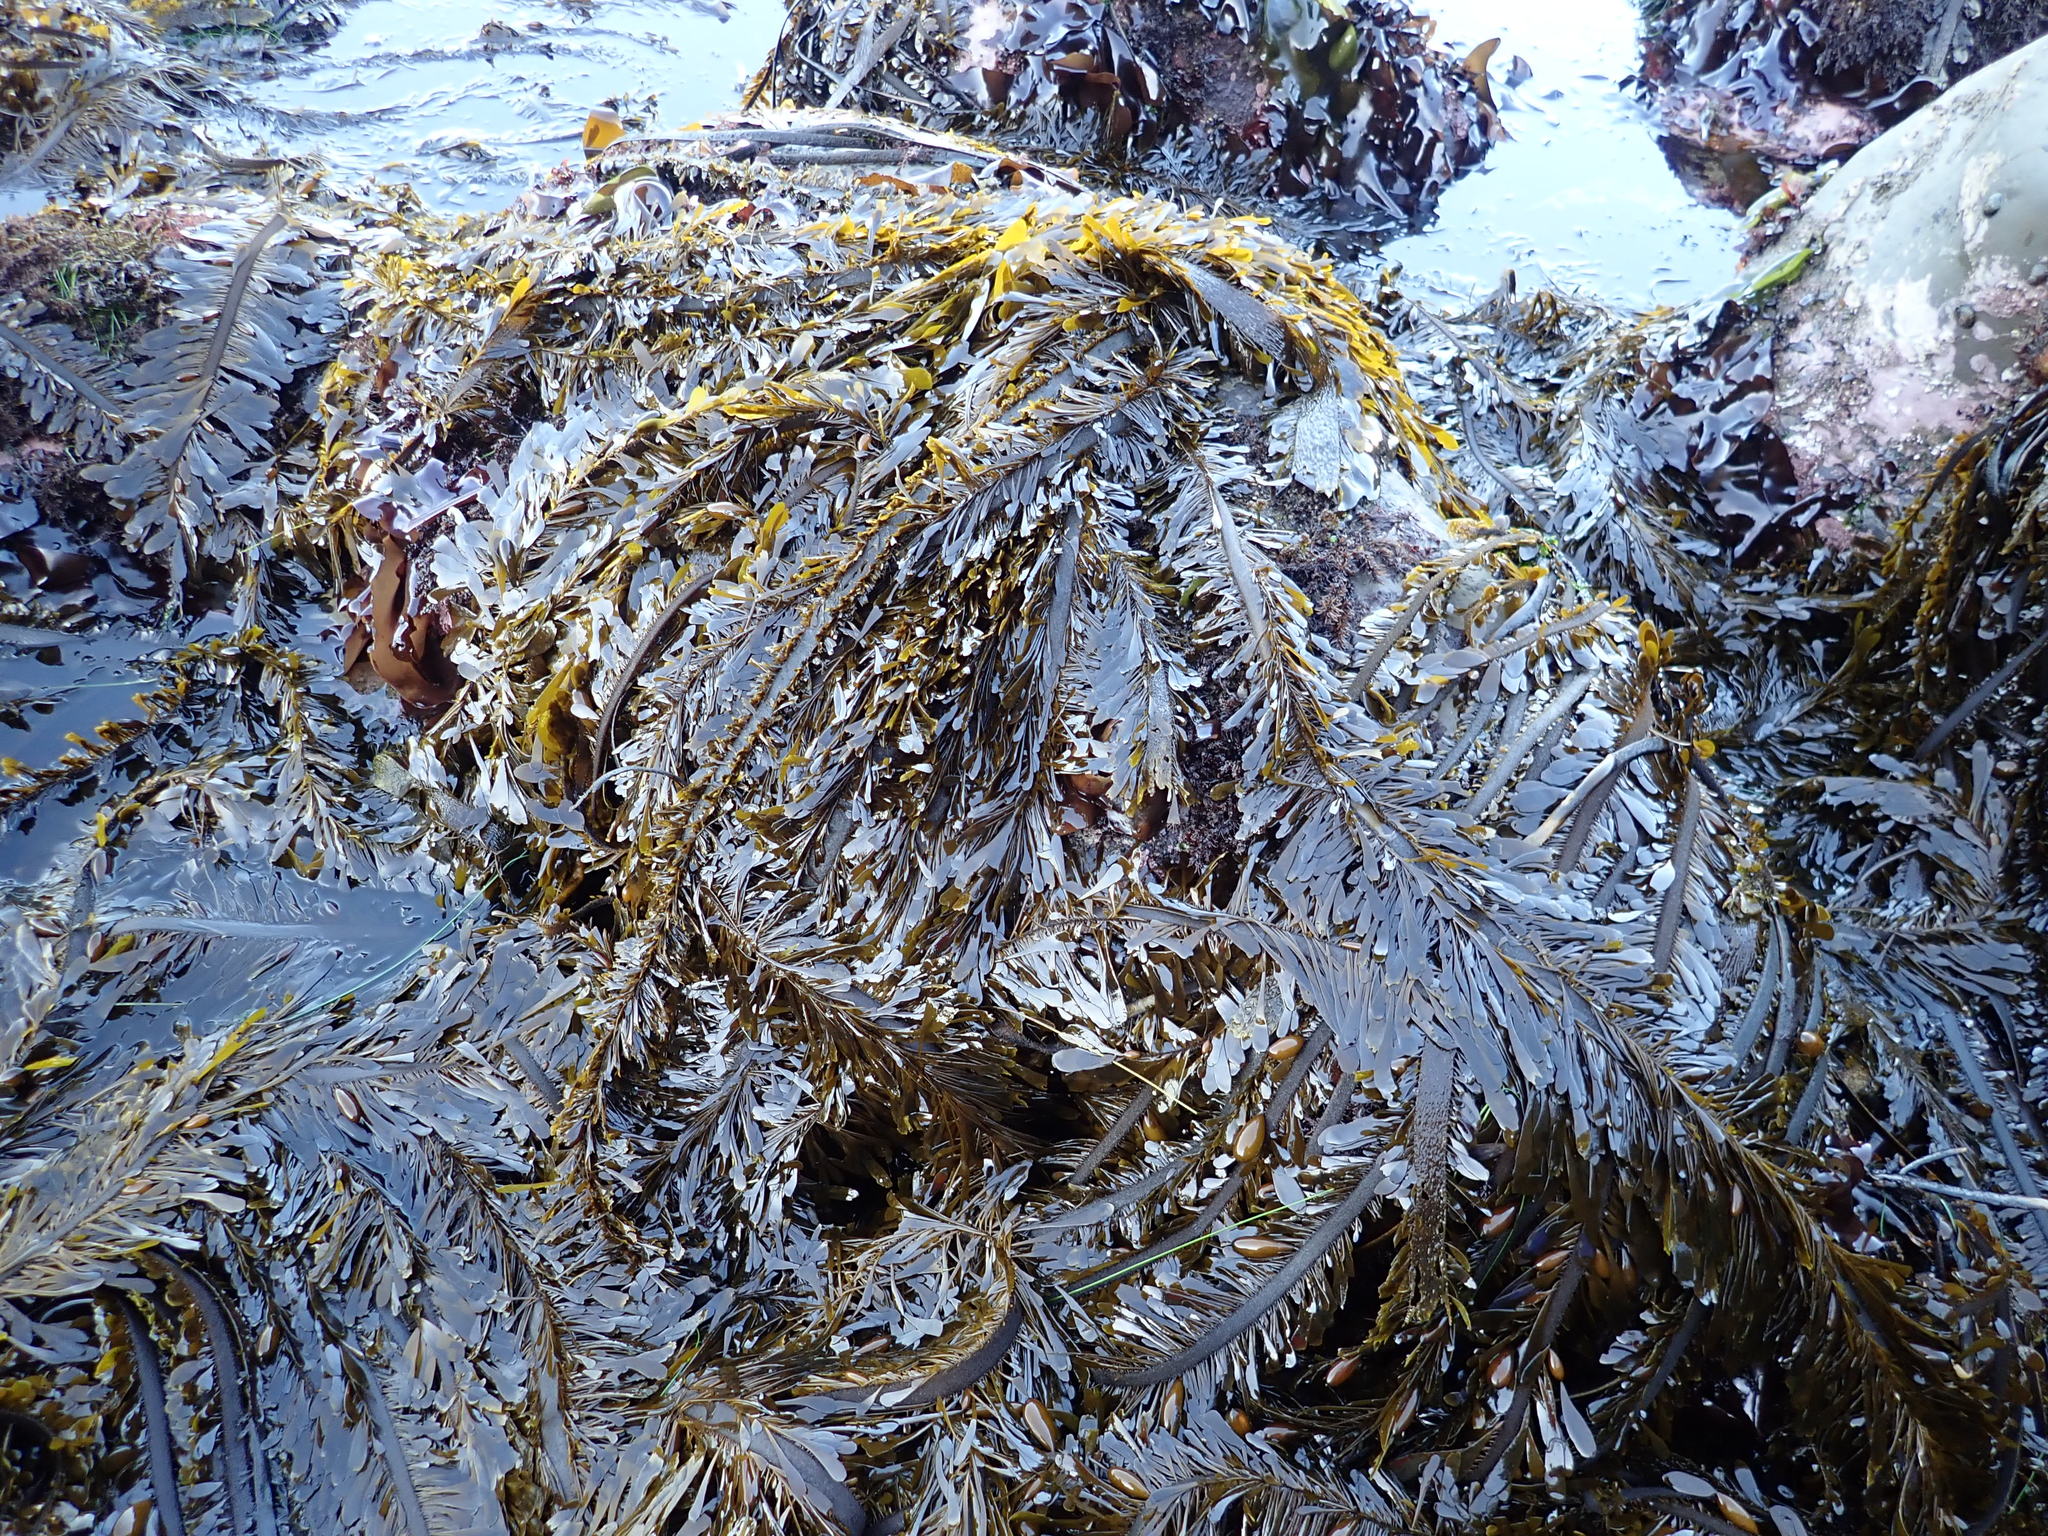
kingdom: Chromista
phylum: Ochrophyta
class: Phaeophyceae
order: Laminariales
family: Lessoniaceae
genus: Egregia
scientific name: Egregia menziesii
